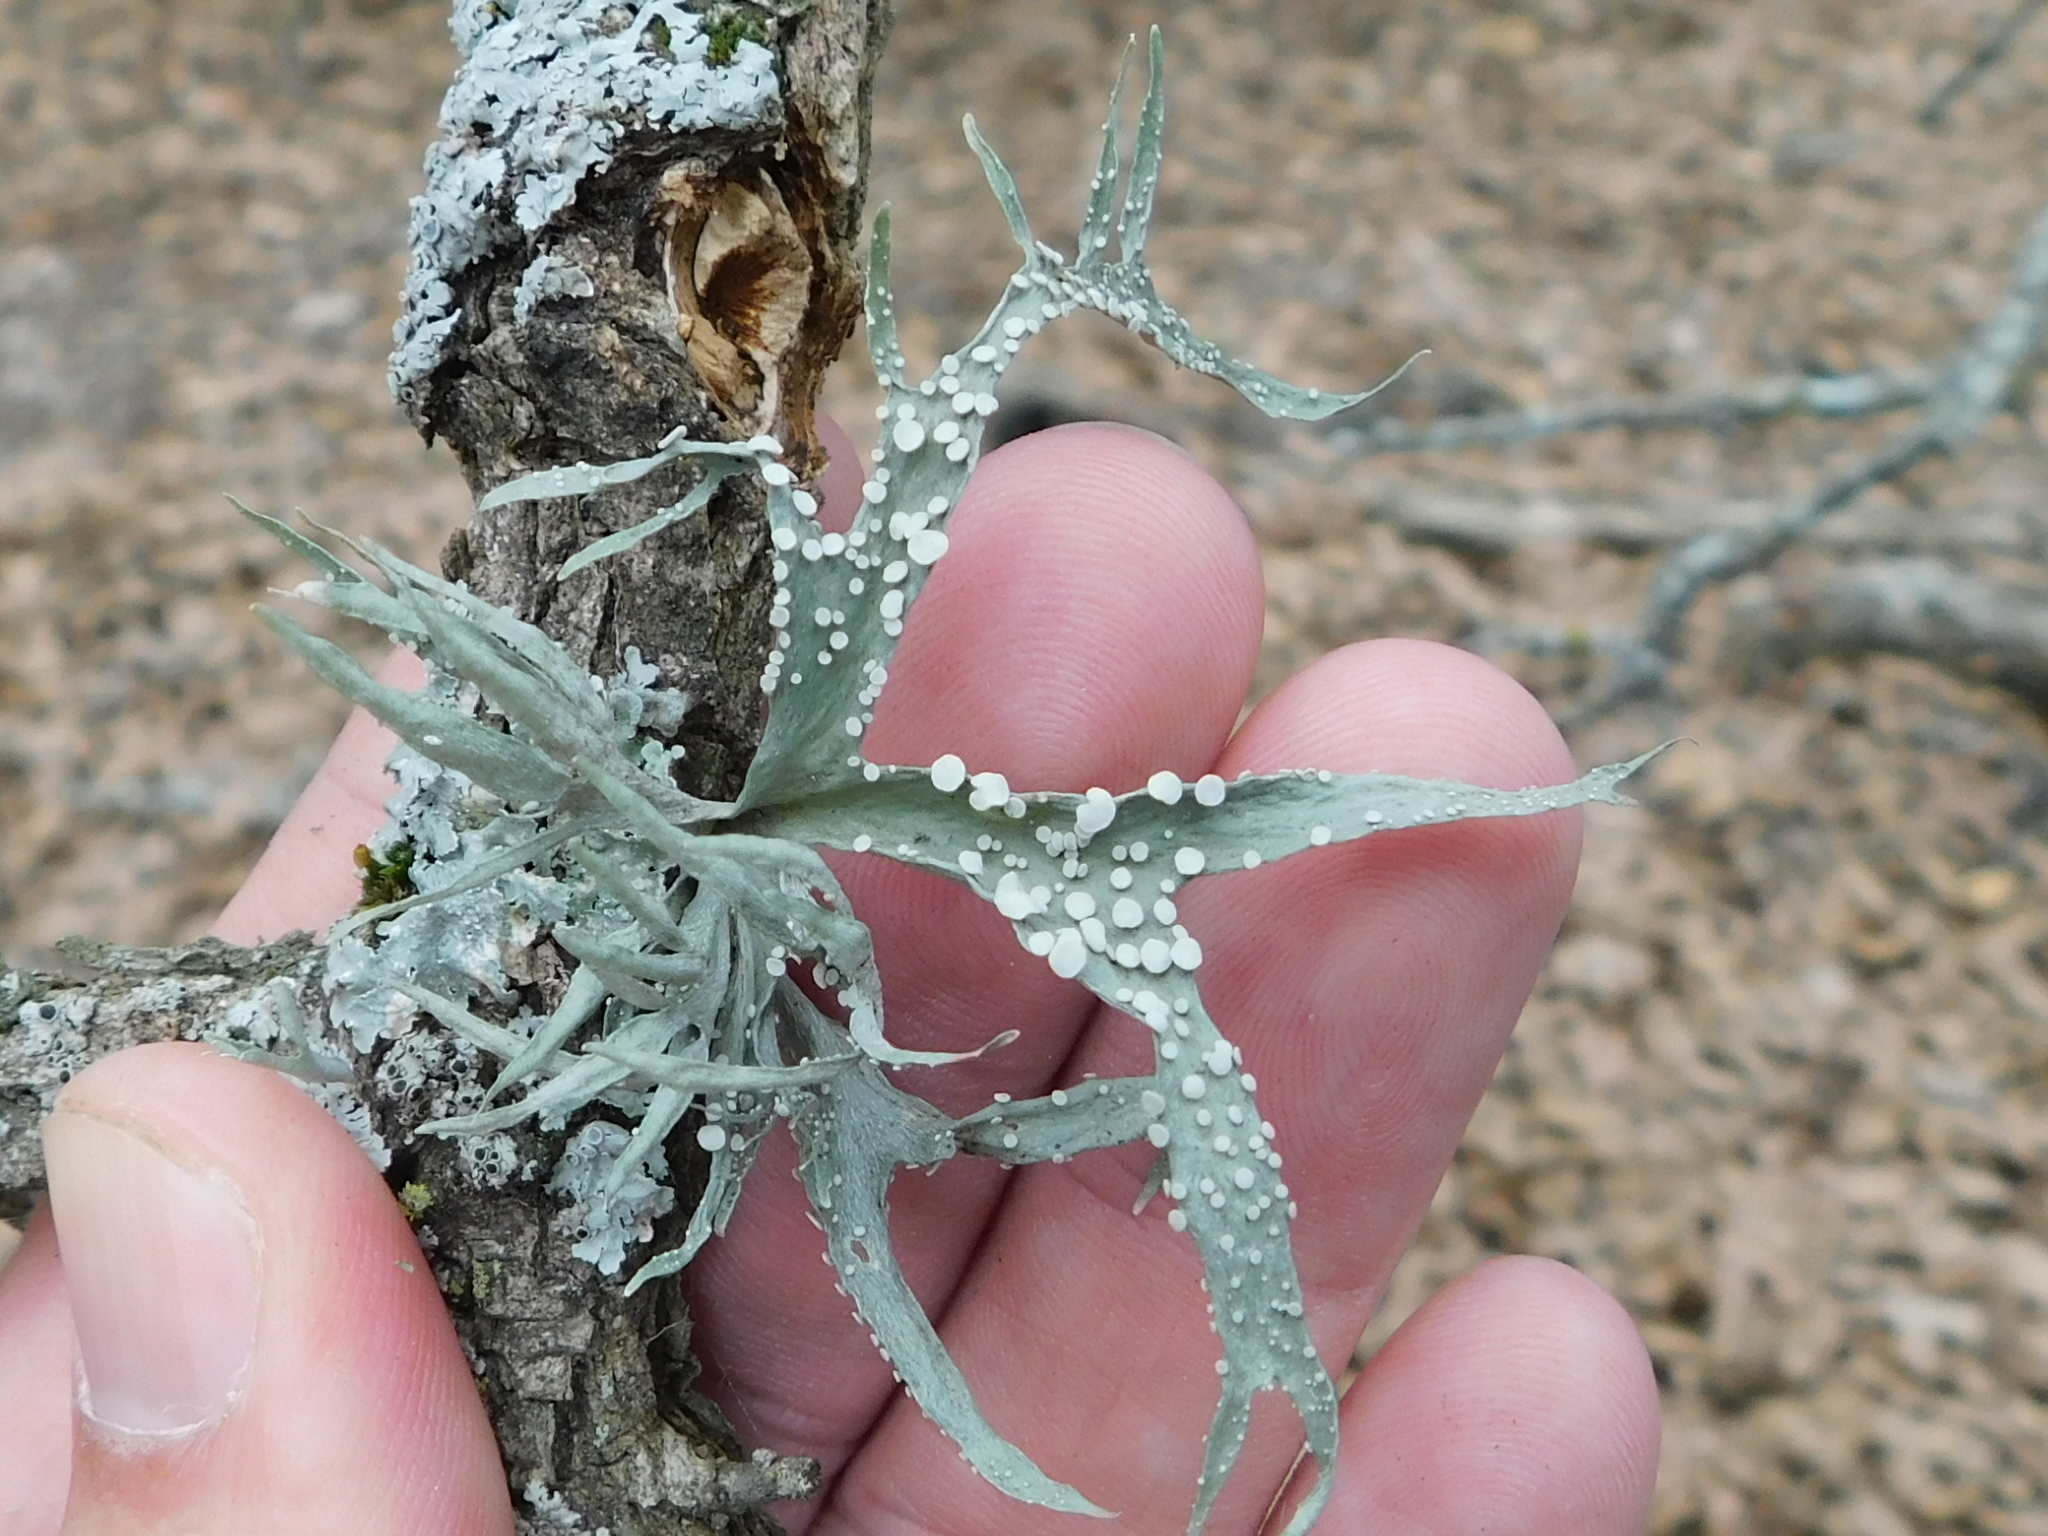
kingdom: Fungi
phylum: Ascomycota
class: Lecanoromycetes
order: Lecanorales
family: Ramalinaceae
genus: Ramalina
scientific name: Ramalina celastri
